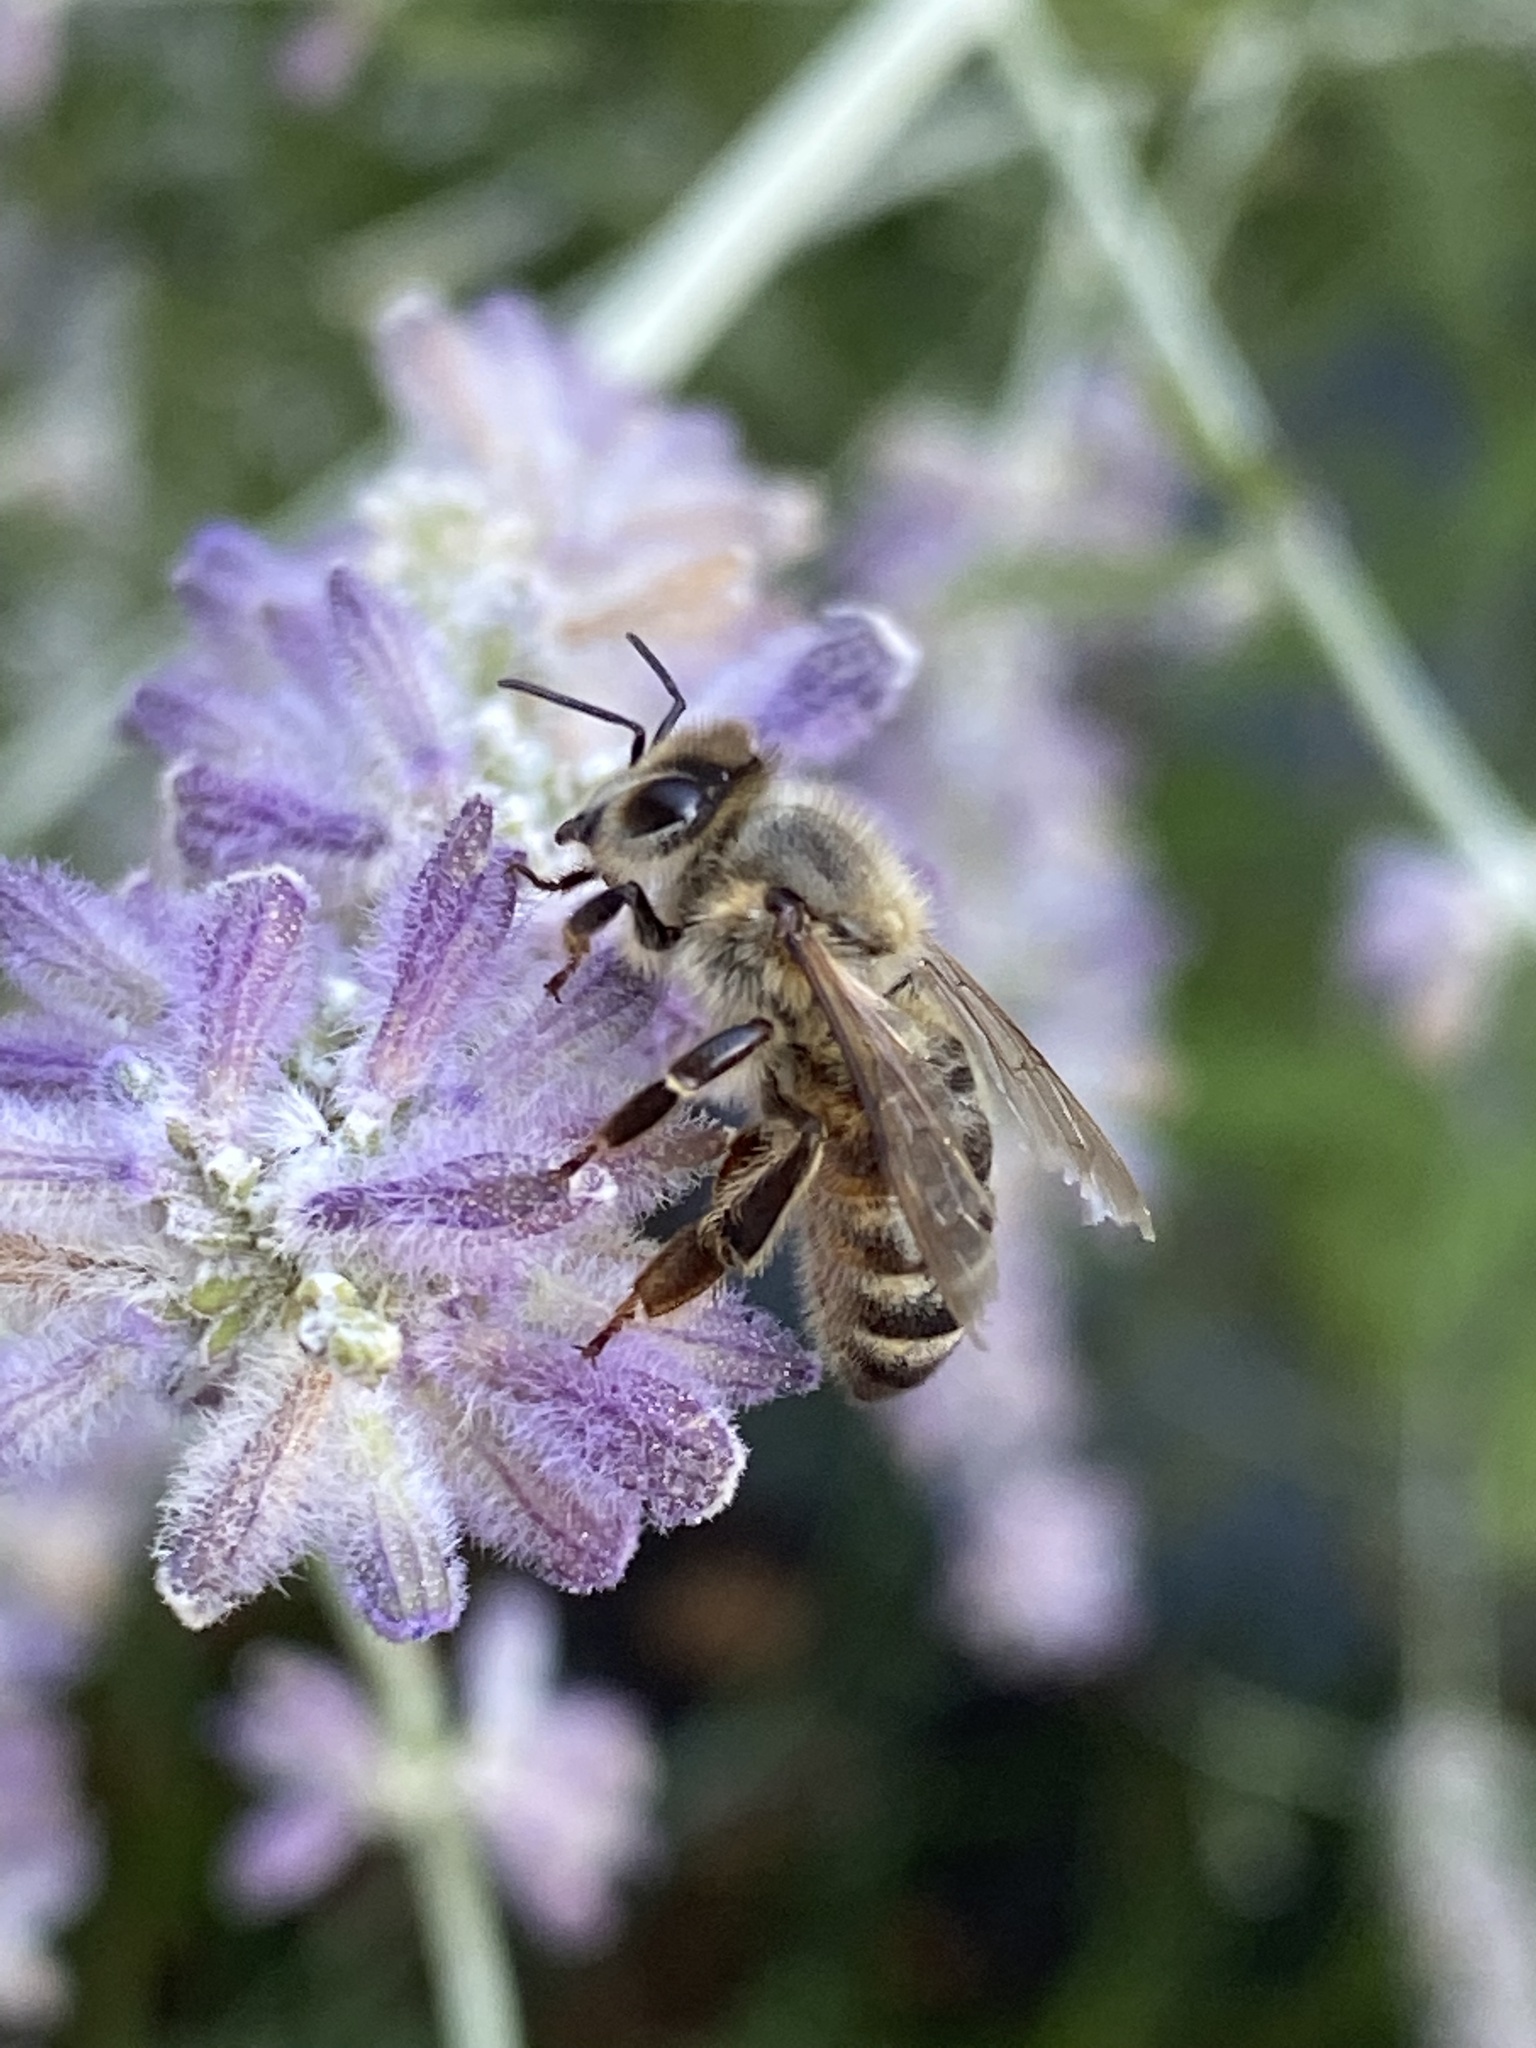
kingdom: Animalia
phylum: Arthropoda
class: Insecta
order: Hymenoptera
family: Apidae
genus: Apis
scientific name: Apis mellifera
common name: Honey bee
